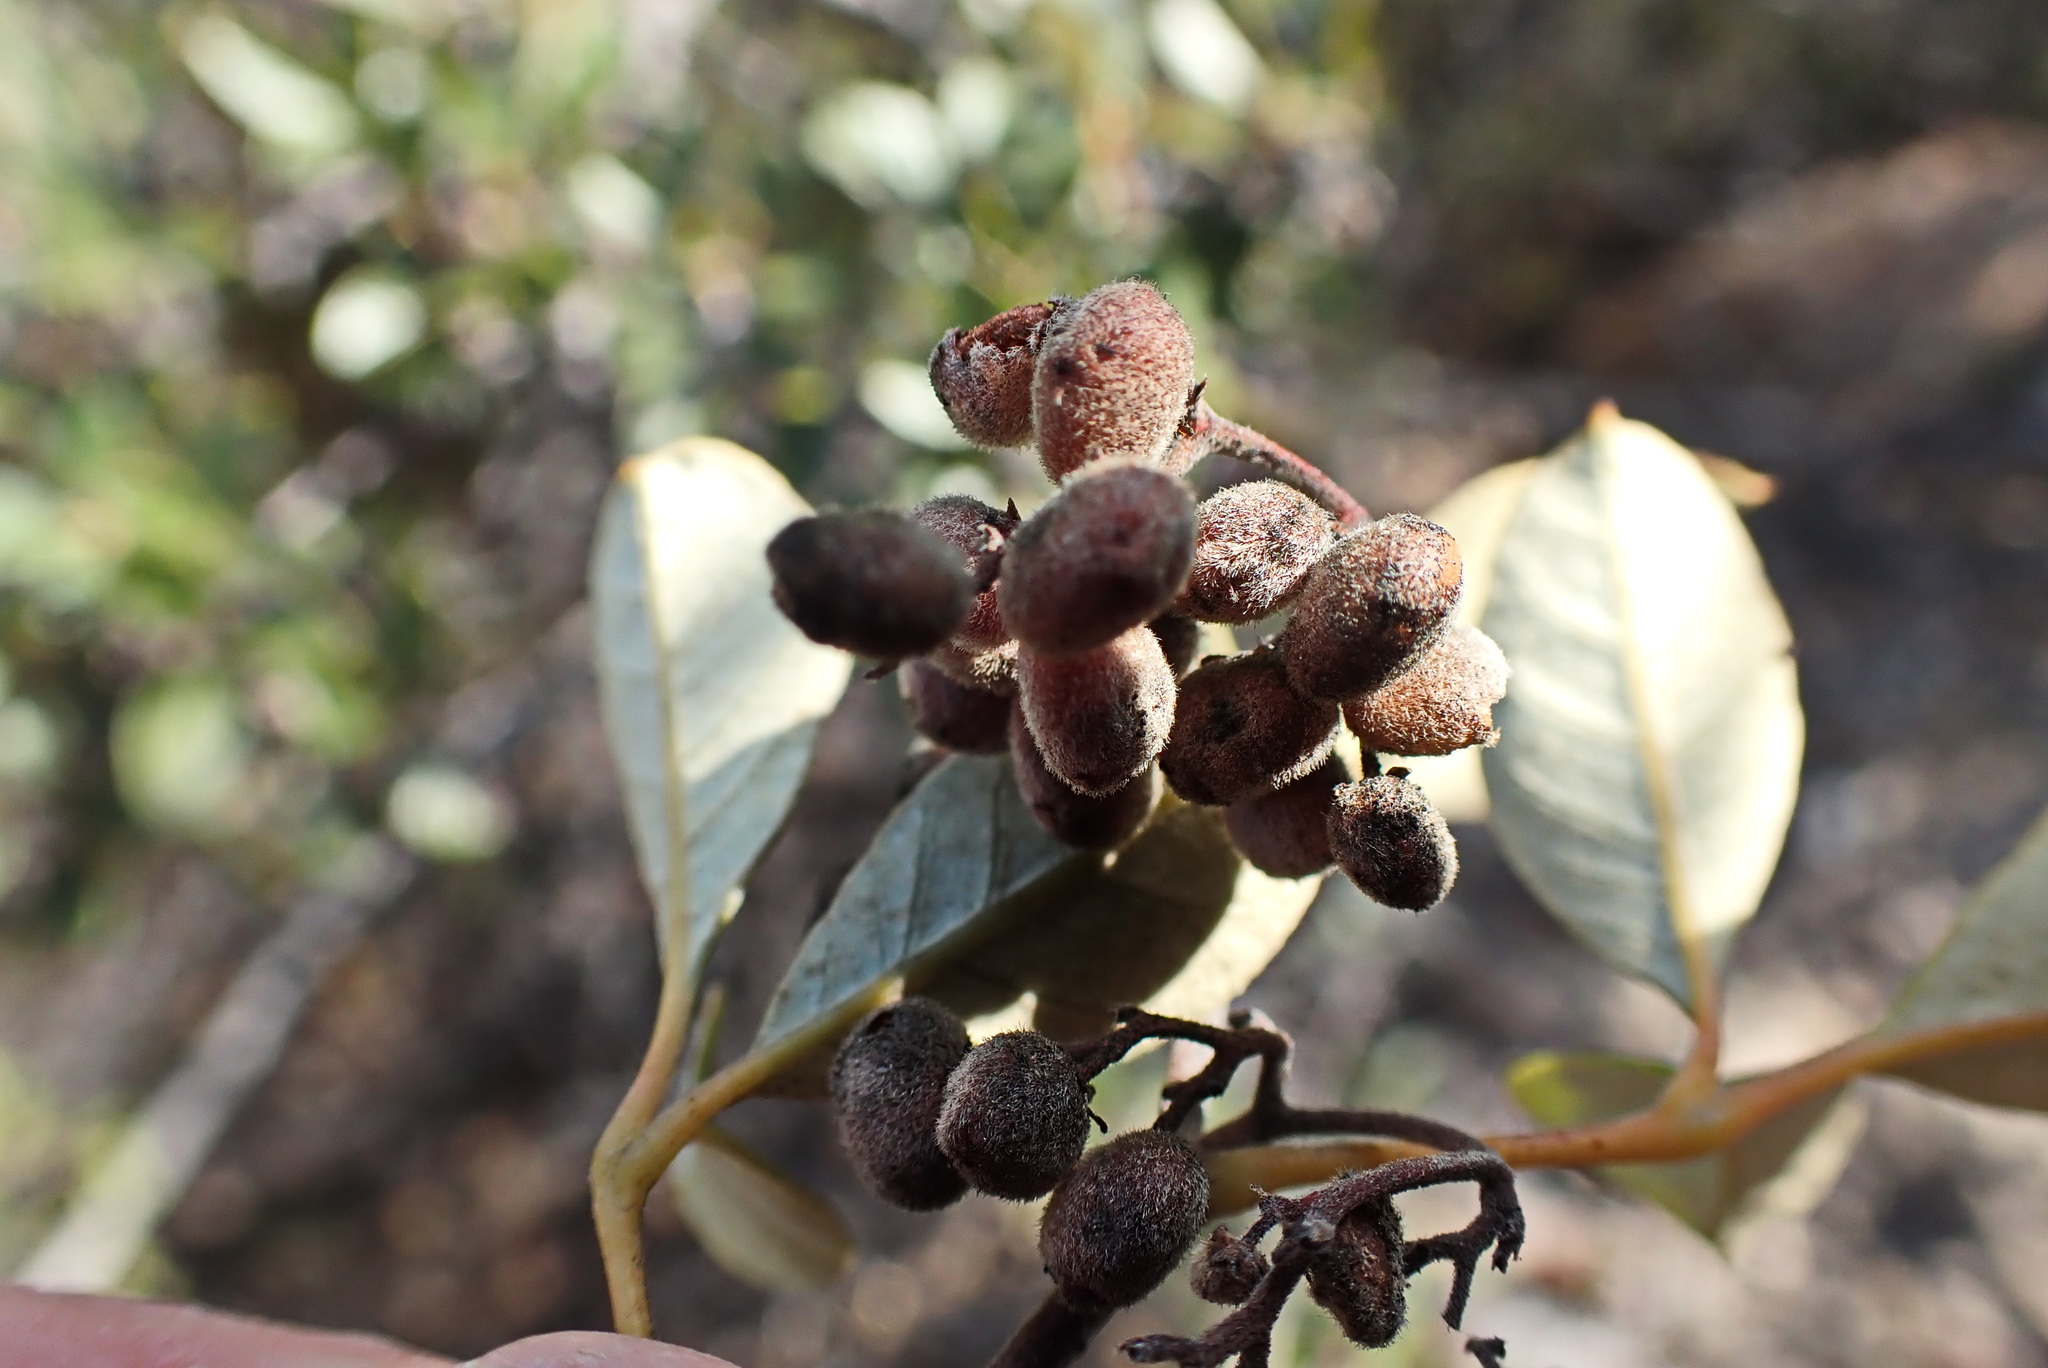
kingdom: Plantae
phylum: Tracheophyta
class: Magnoliopsida
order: Ericales
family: Ebenaceae
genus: Euclea
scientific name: Euclea polyandra
